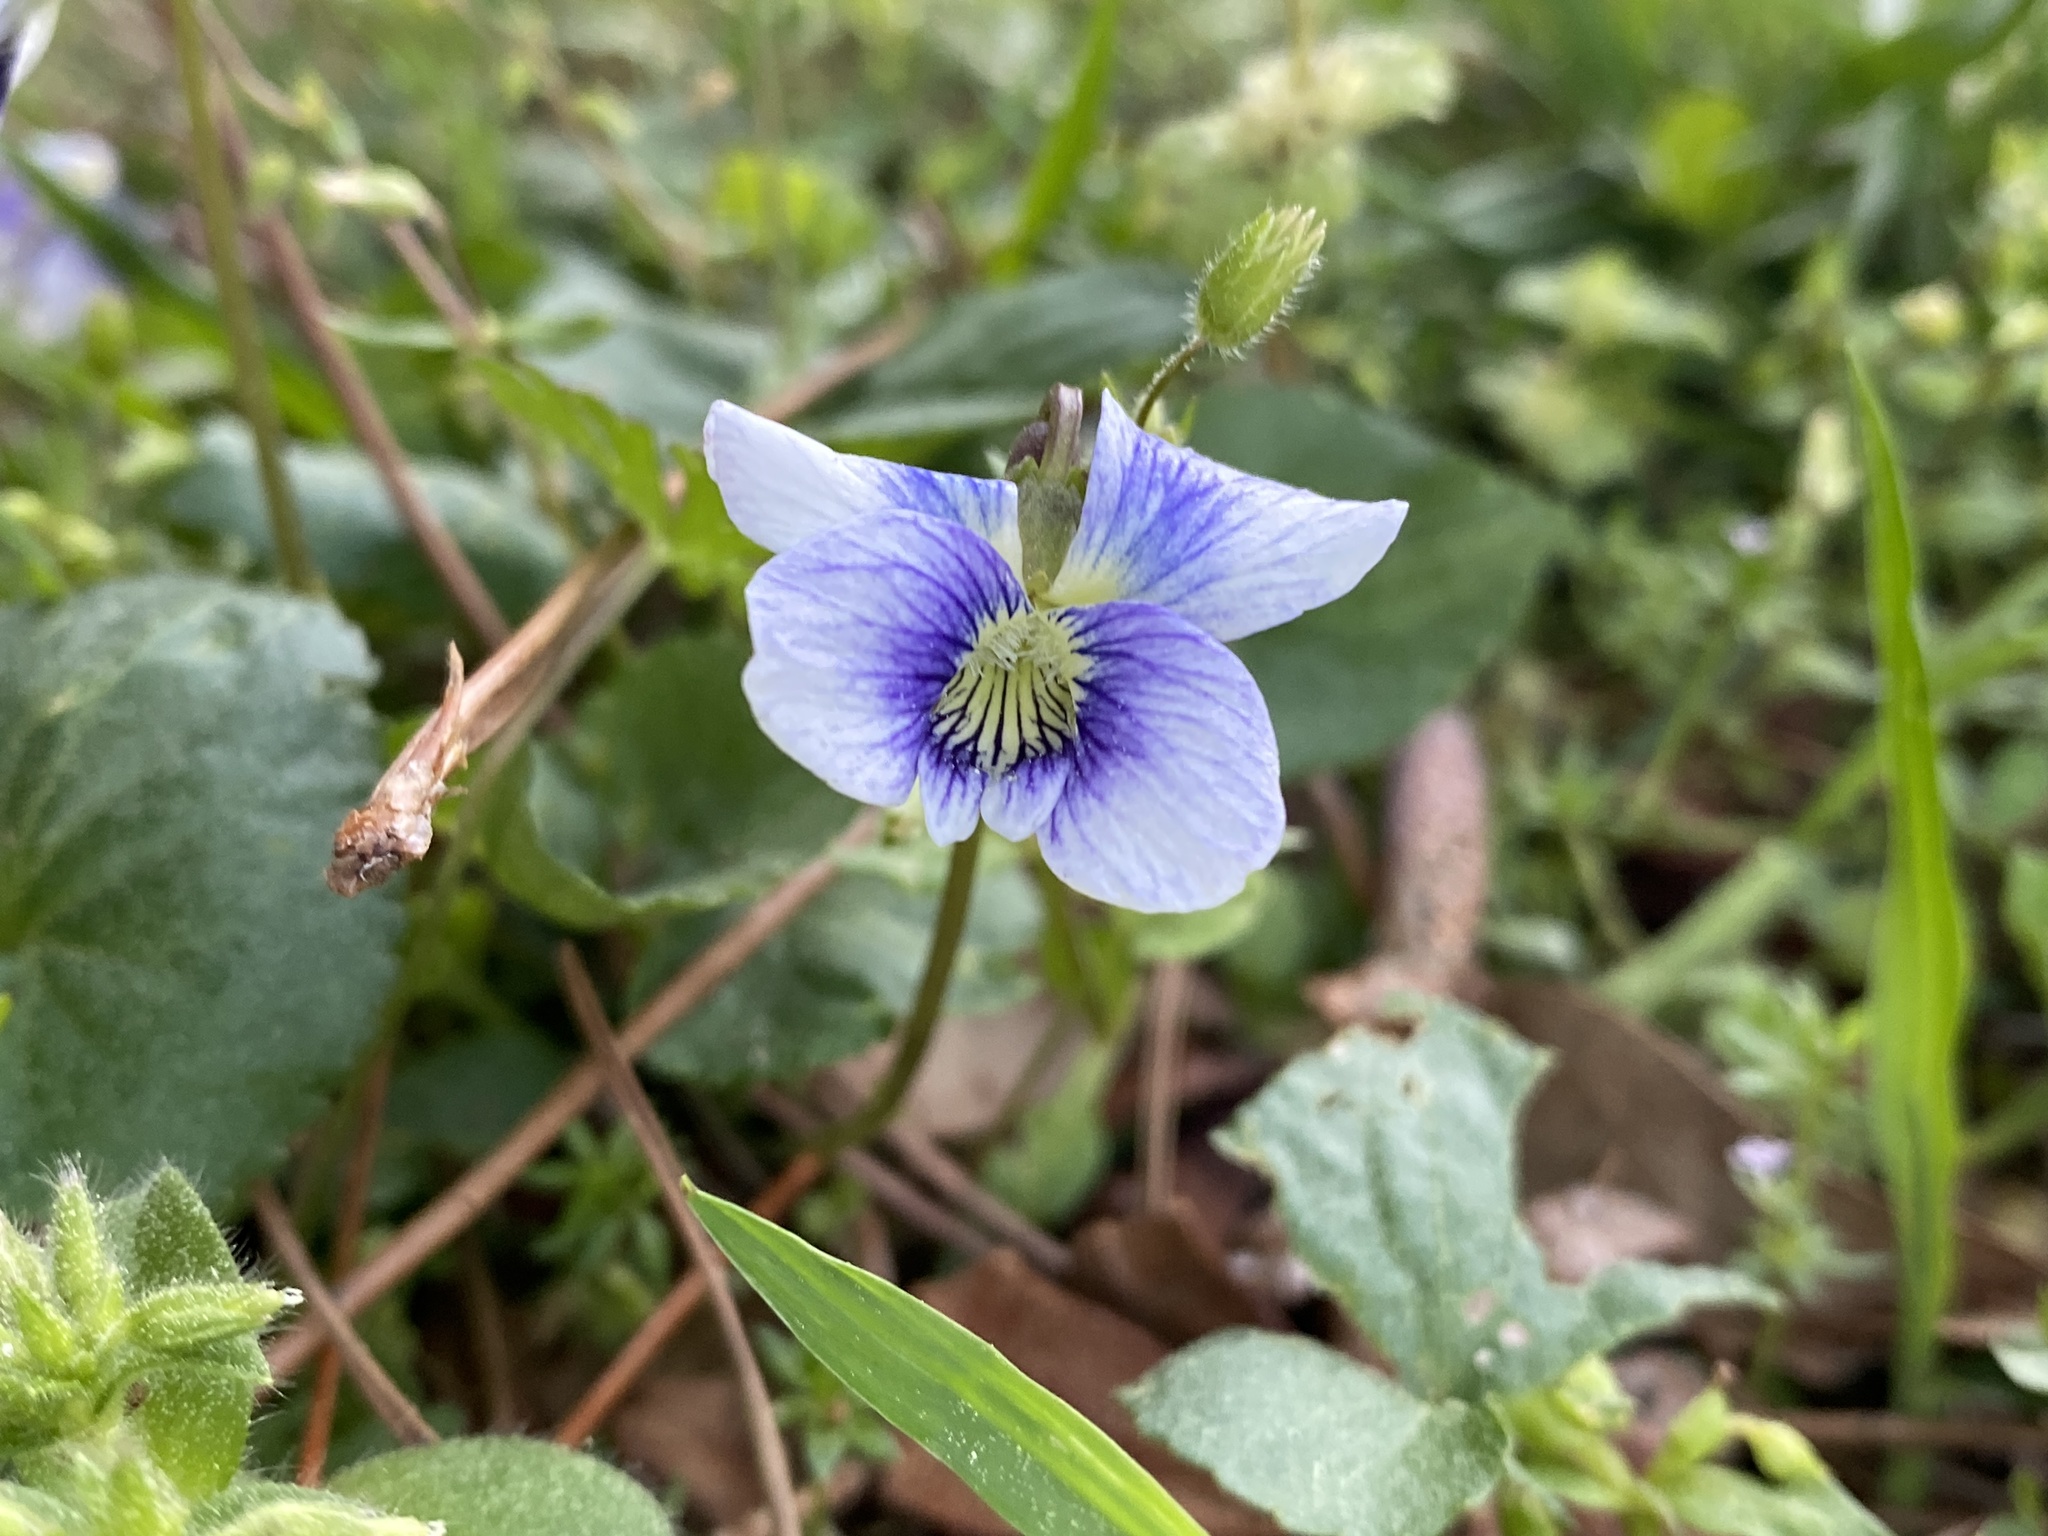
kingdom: Plantae
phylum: Tracheophyta
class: Magnoliopsida
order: Malpighiales
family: Violaceae
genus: Viola
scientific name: Viola sororia
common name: Dooryard violet
